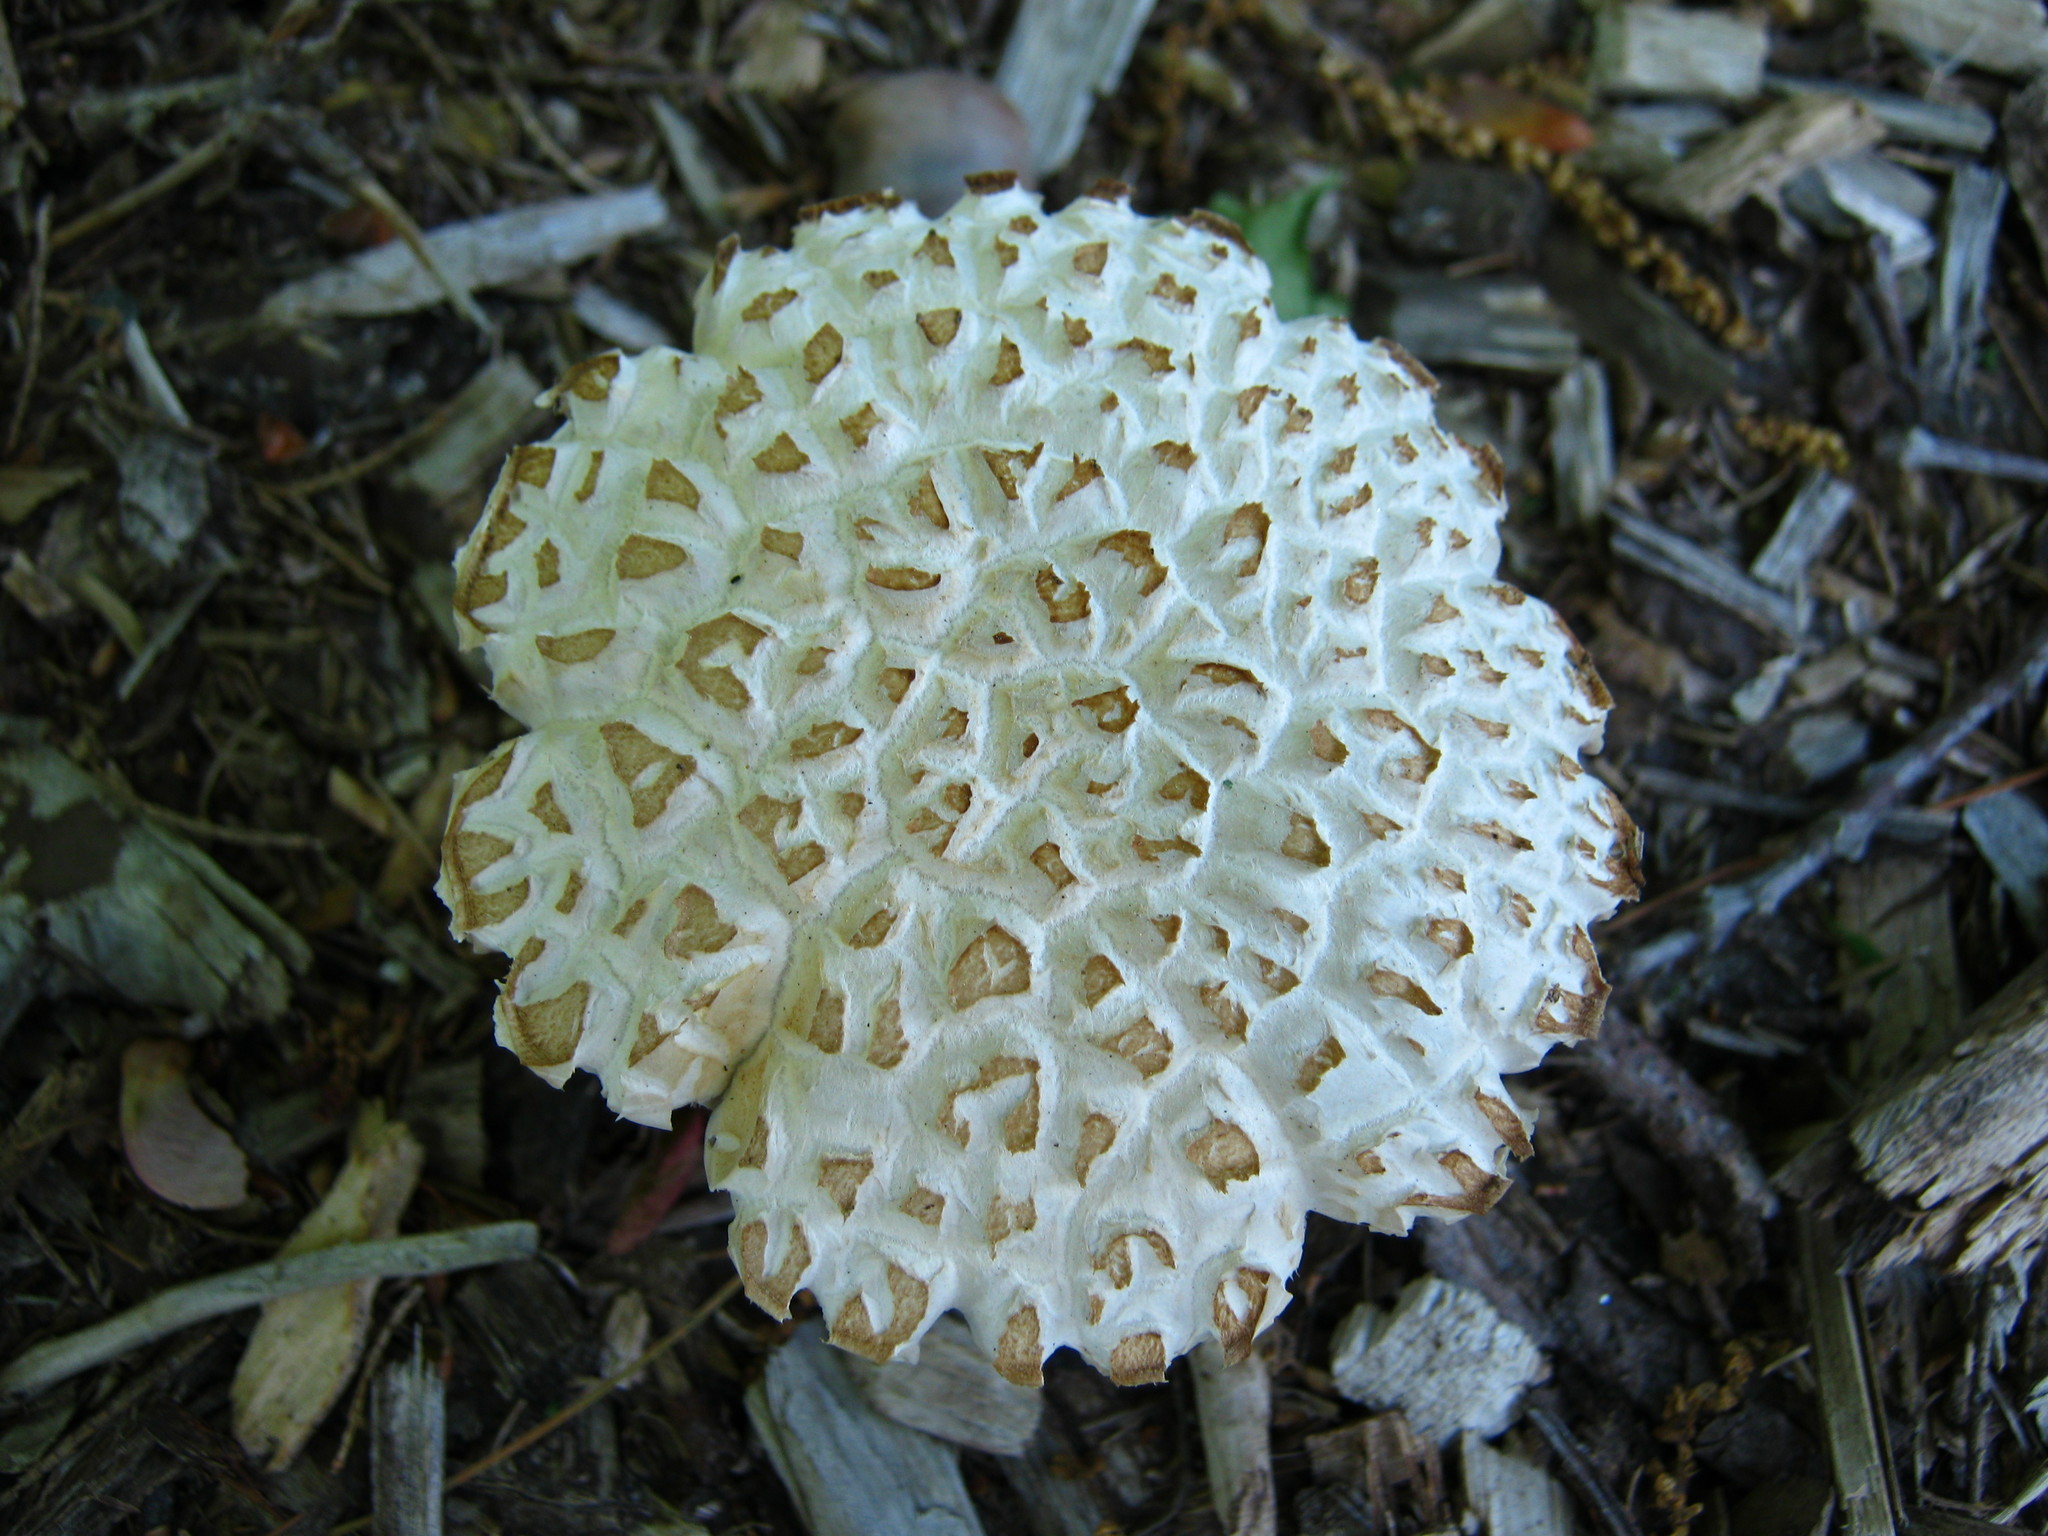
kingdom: Fungi
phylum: Basidiomycota
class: Agaricomycetes
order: Agaricales
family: Strophariaceae
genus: Stropharia
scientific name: Stropharia rugosoannulata
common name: Wine roundhead
